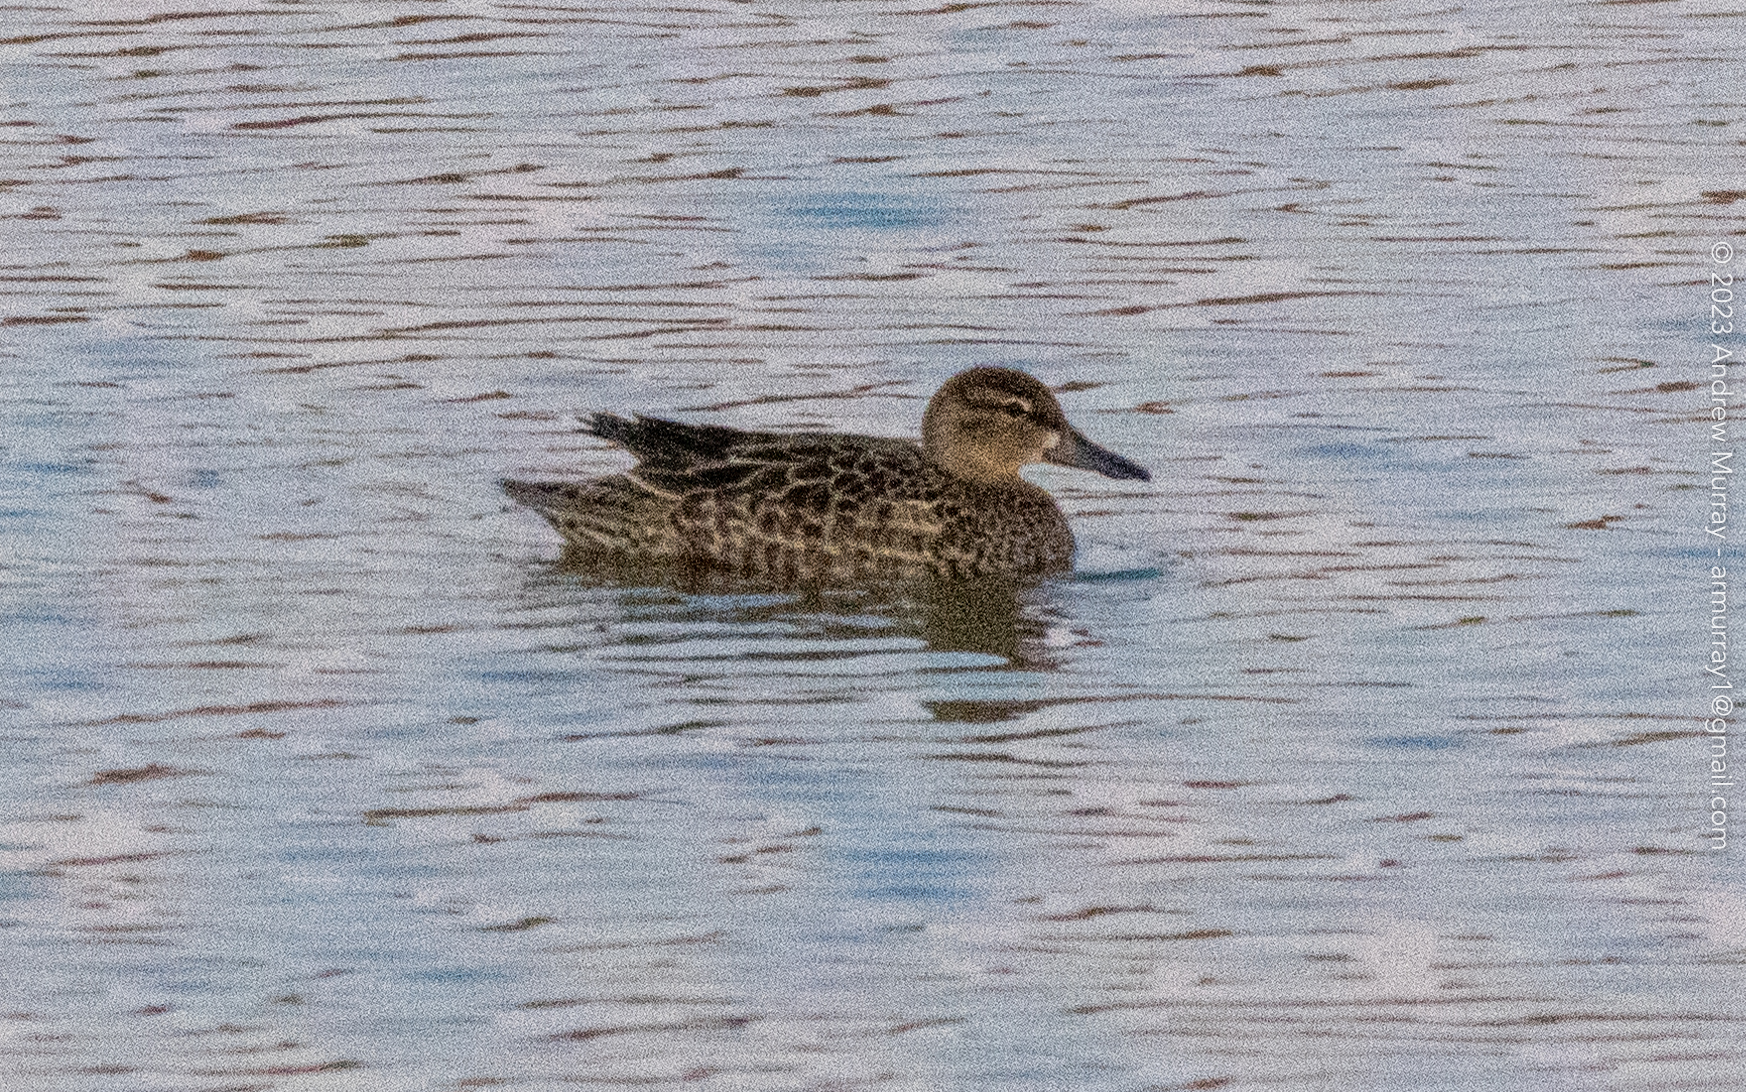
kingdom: Animalia
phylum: Chordata
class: Aves
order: Anseriformes
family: Anatidae
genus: Spatula
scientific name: Spatula discors
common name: Blue-winged teal
